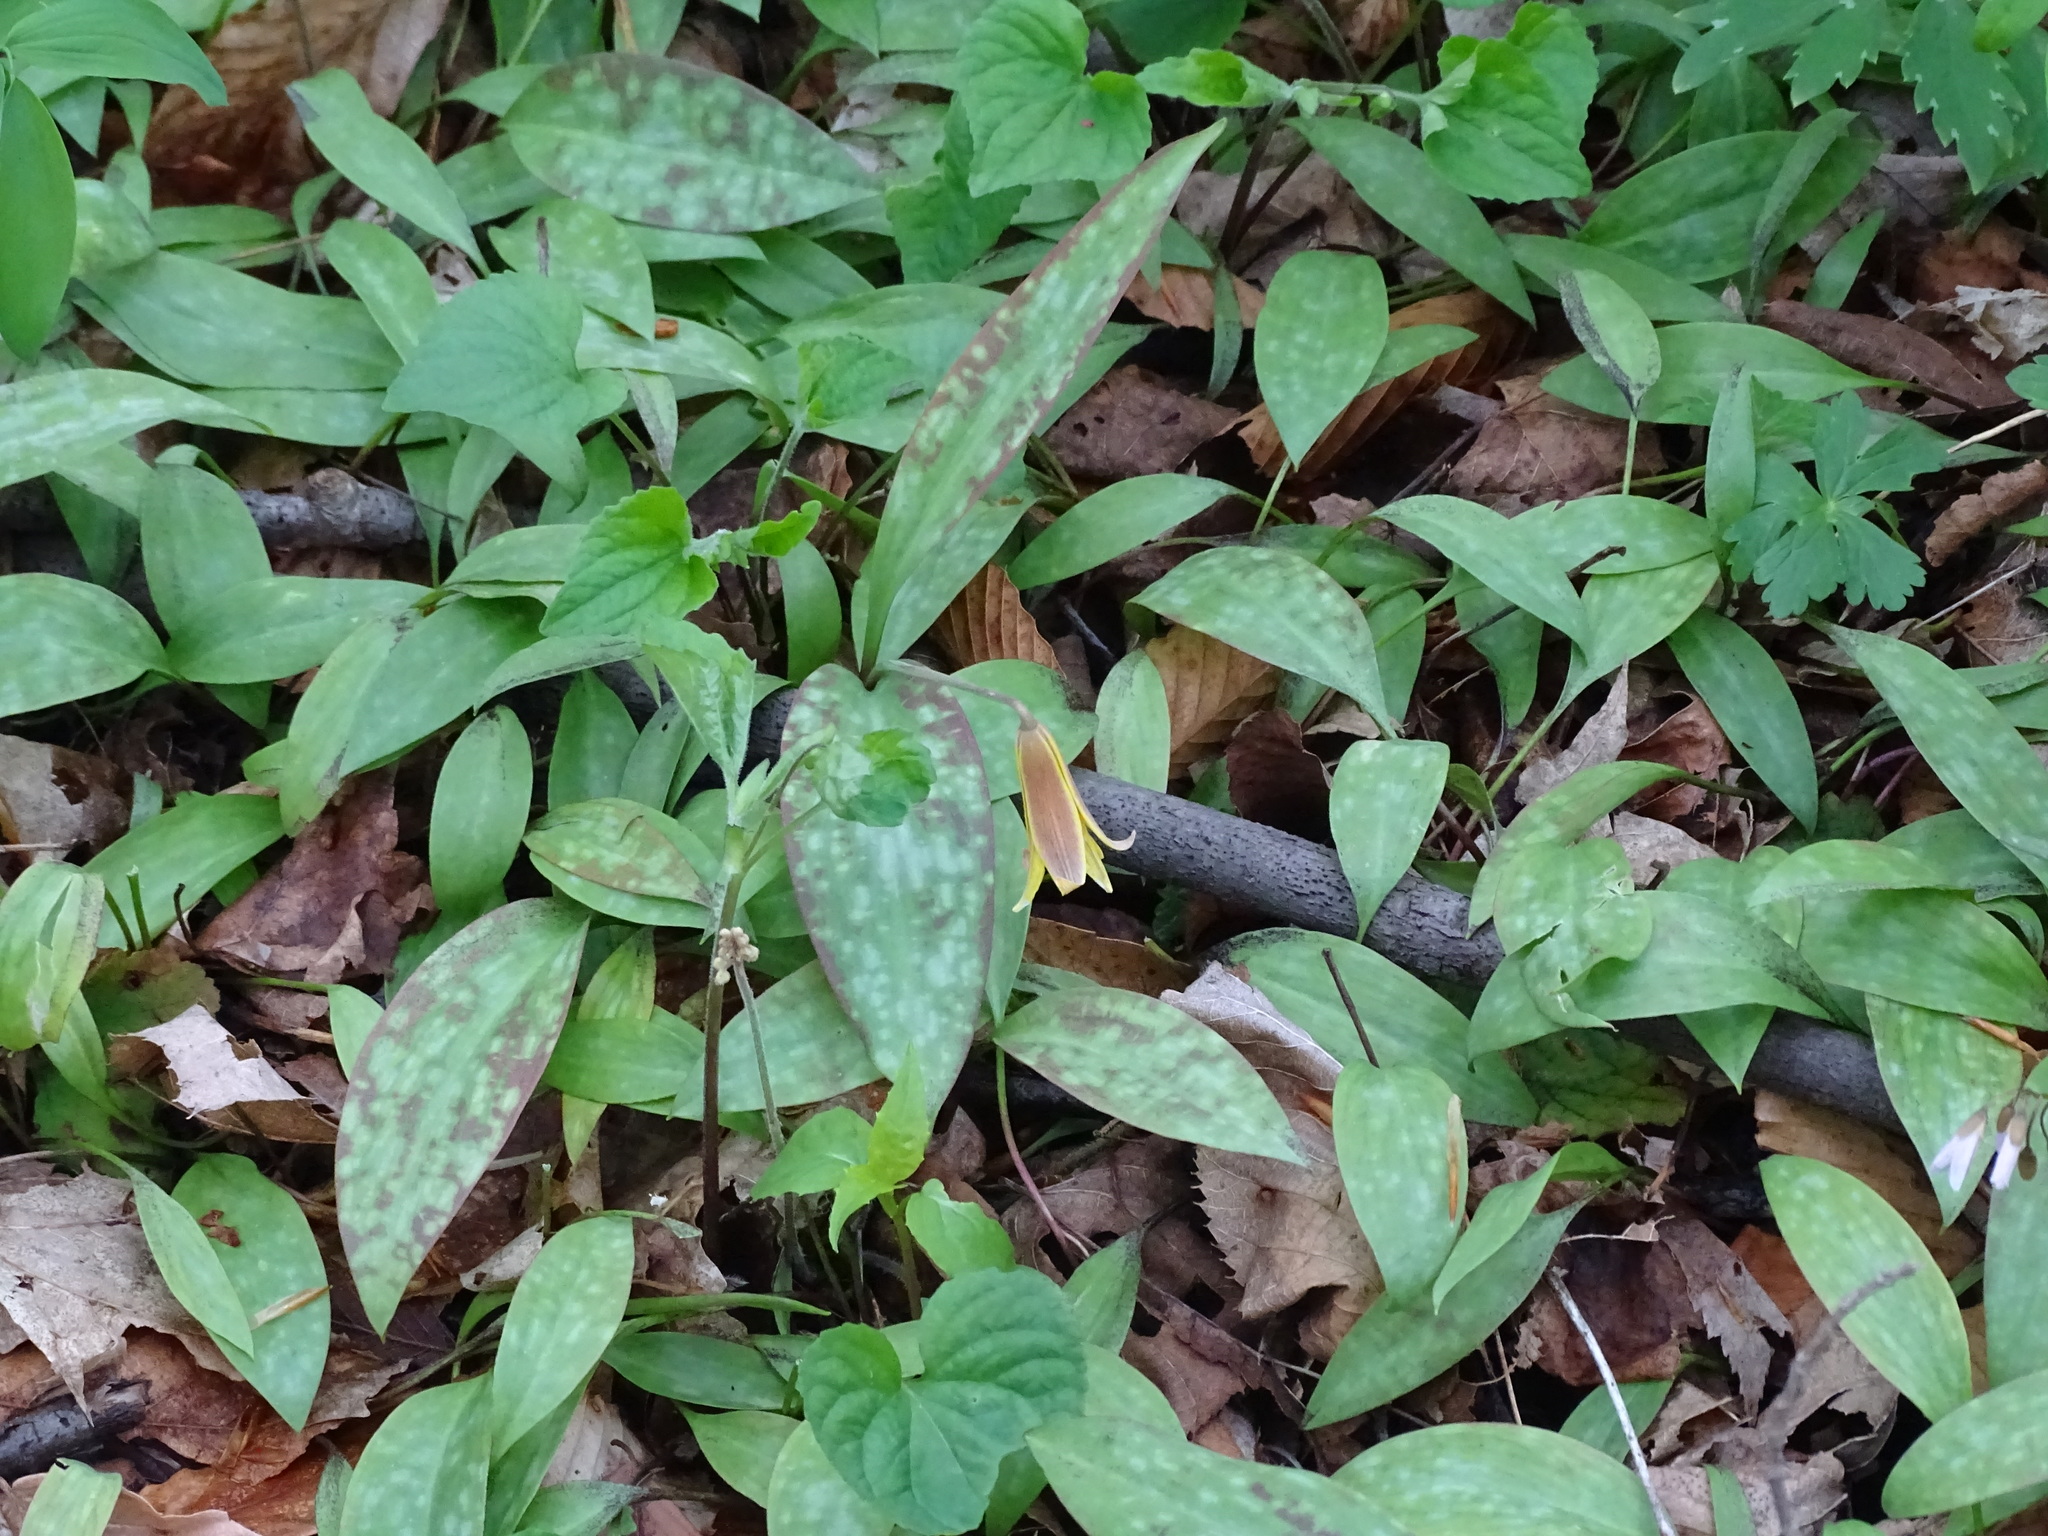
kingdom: Plantae
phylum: Tracheophyta
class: Liliopsida
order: Liliales
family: Liliaceae
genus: Erythronium
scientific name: Erythronium americanum
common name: Yellow adder's-tongue
